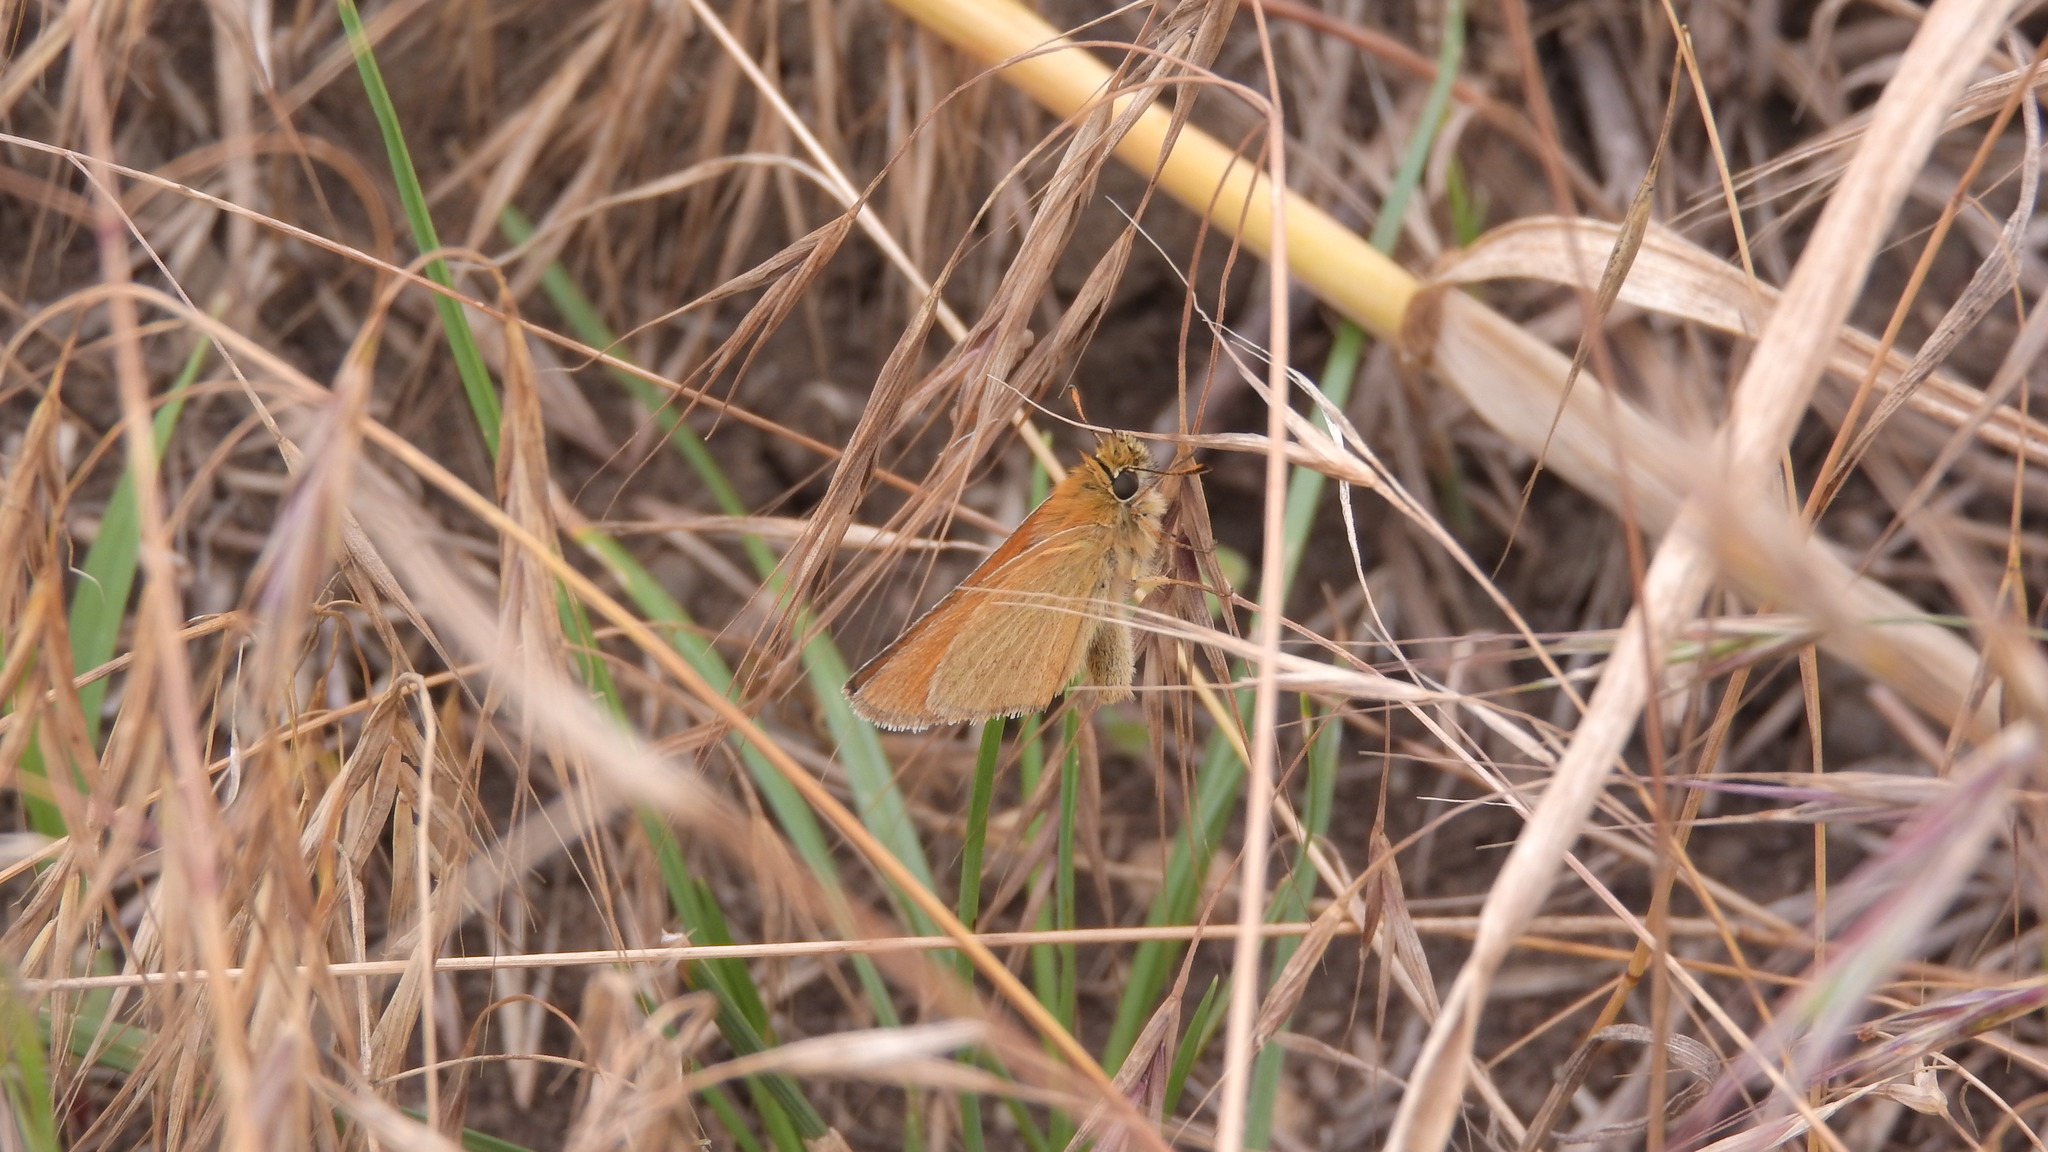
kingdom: Animalia
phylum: Arthropoda
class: Insecta
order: Lepidoptera
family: Hesperiidae
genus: Thymelicus
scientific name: Thymelicus lineola
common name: Essex skipper
